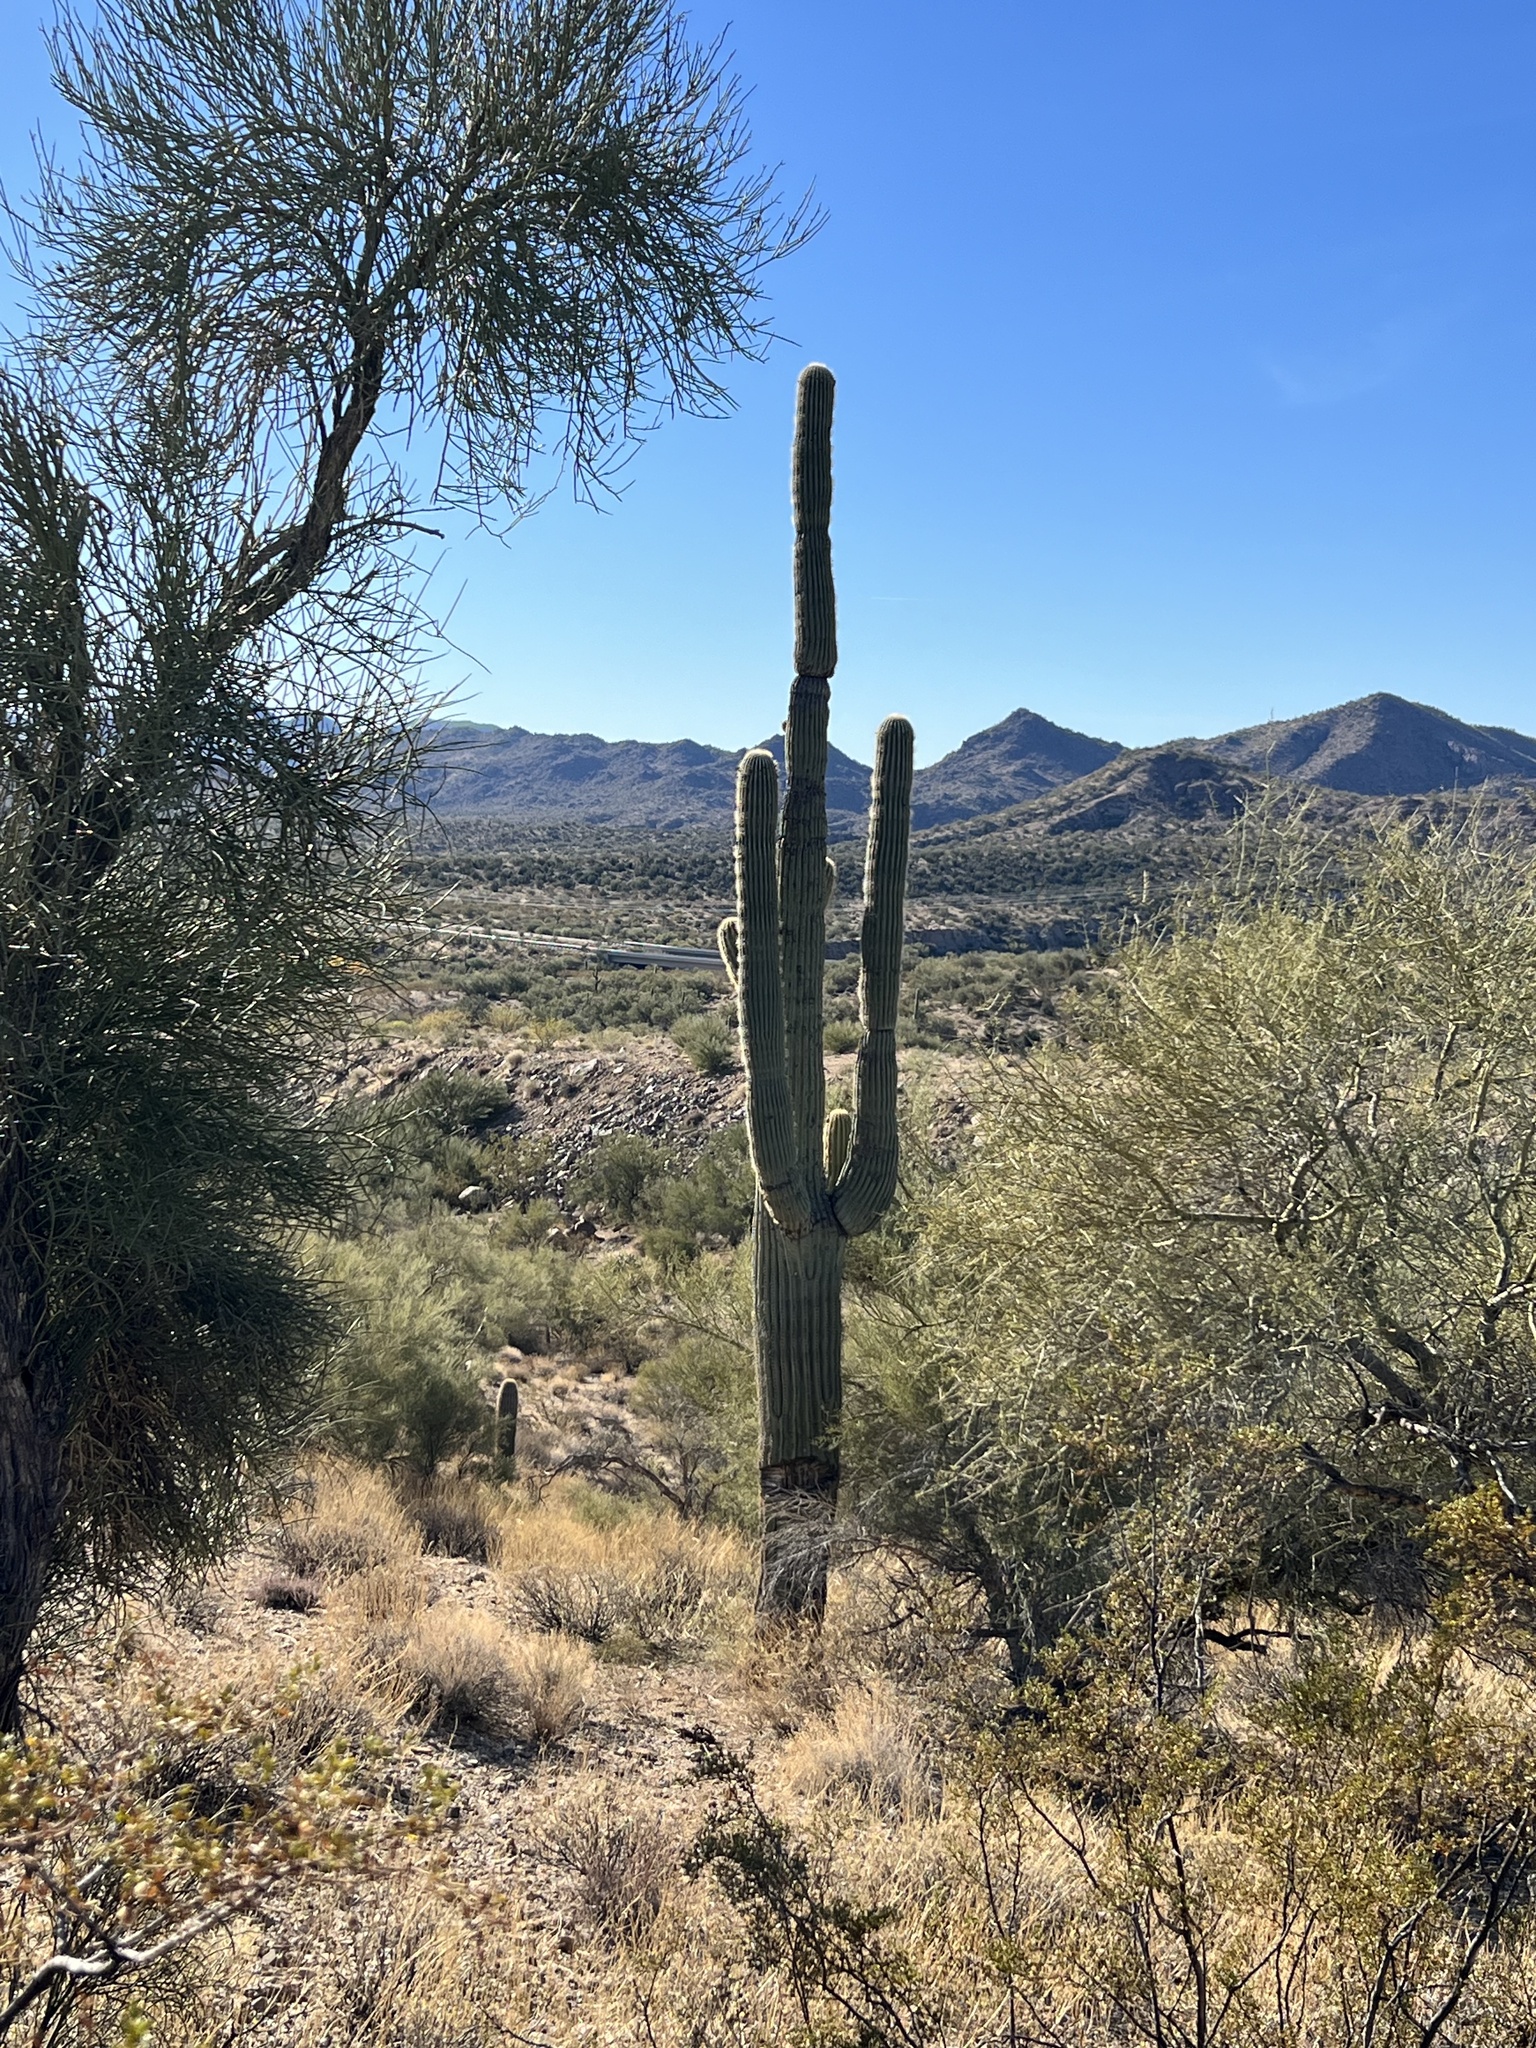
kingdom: Plantae
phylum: Tracheophyta
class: Magnoliopsida
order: Caryophyllales
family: Cactaceae
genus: Carnegiea
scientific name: Carnegiea gigantea
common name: Saguaro
